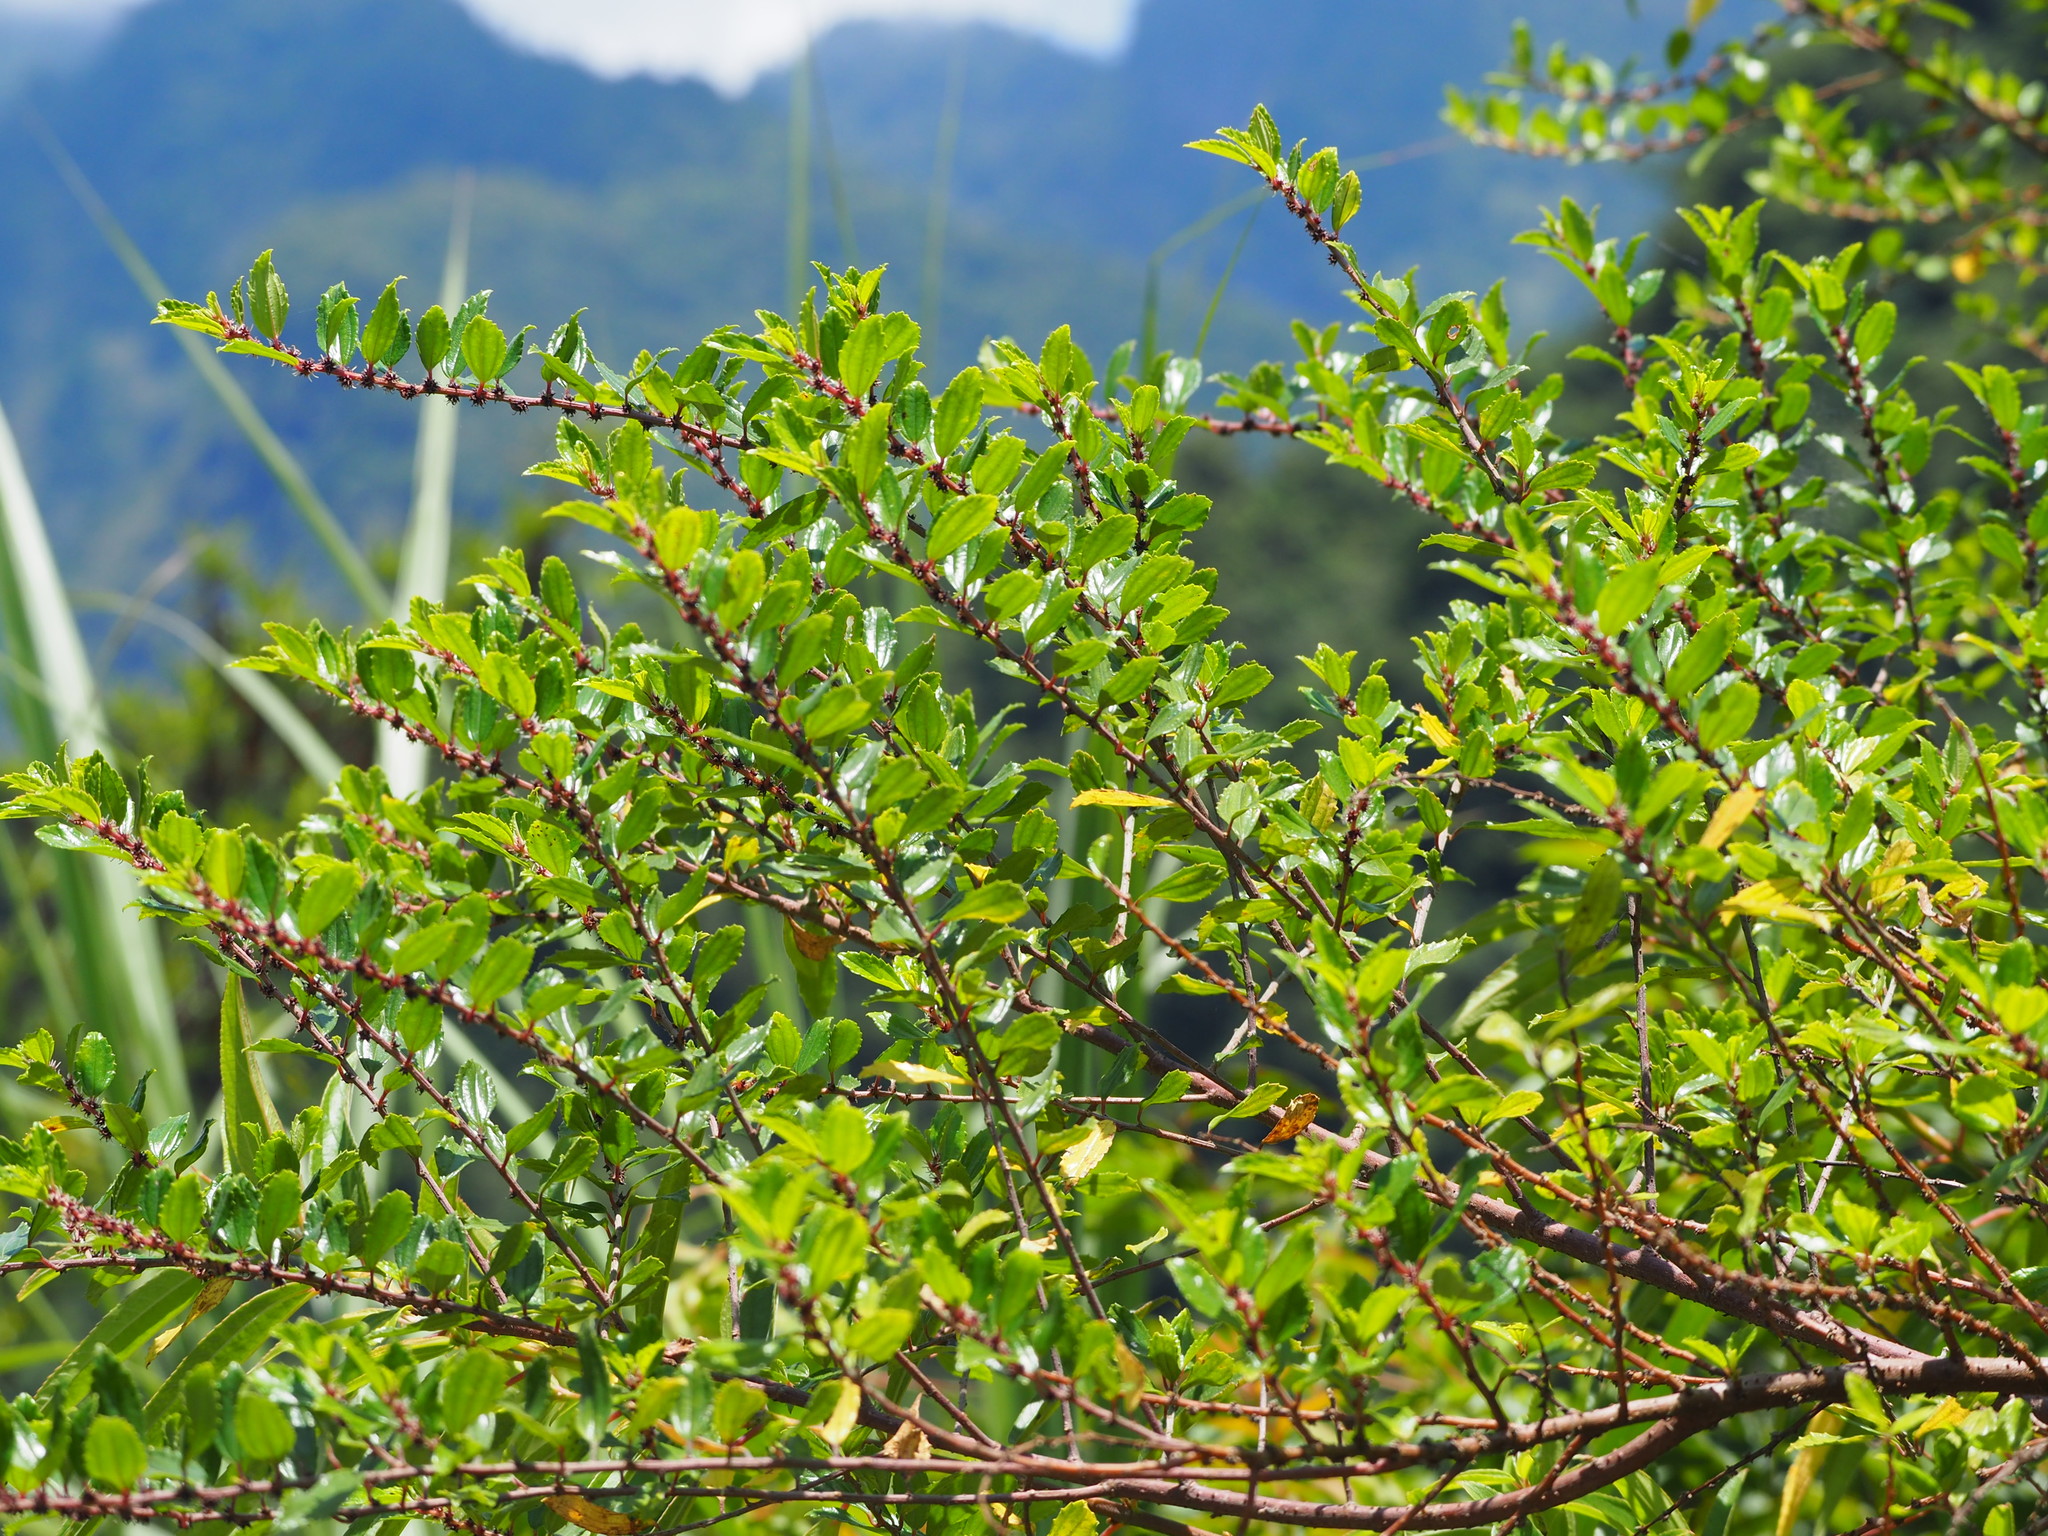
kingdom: Plantae
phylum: Tracheophyta
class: Magnoliopsida
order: Rosales
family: Urticaceae
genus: Pouzolzia
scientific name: Pouzolzia sanguinea
